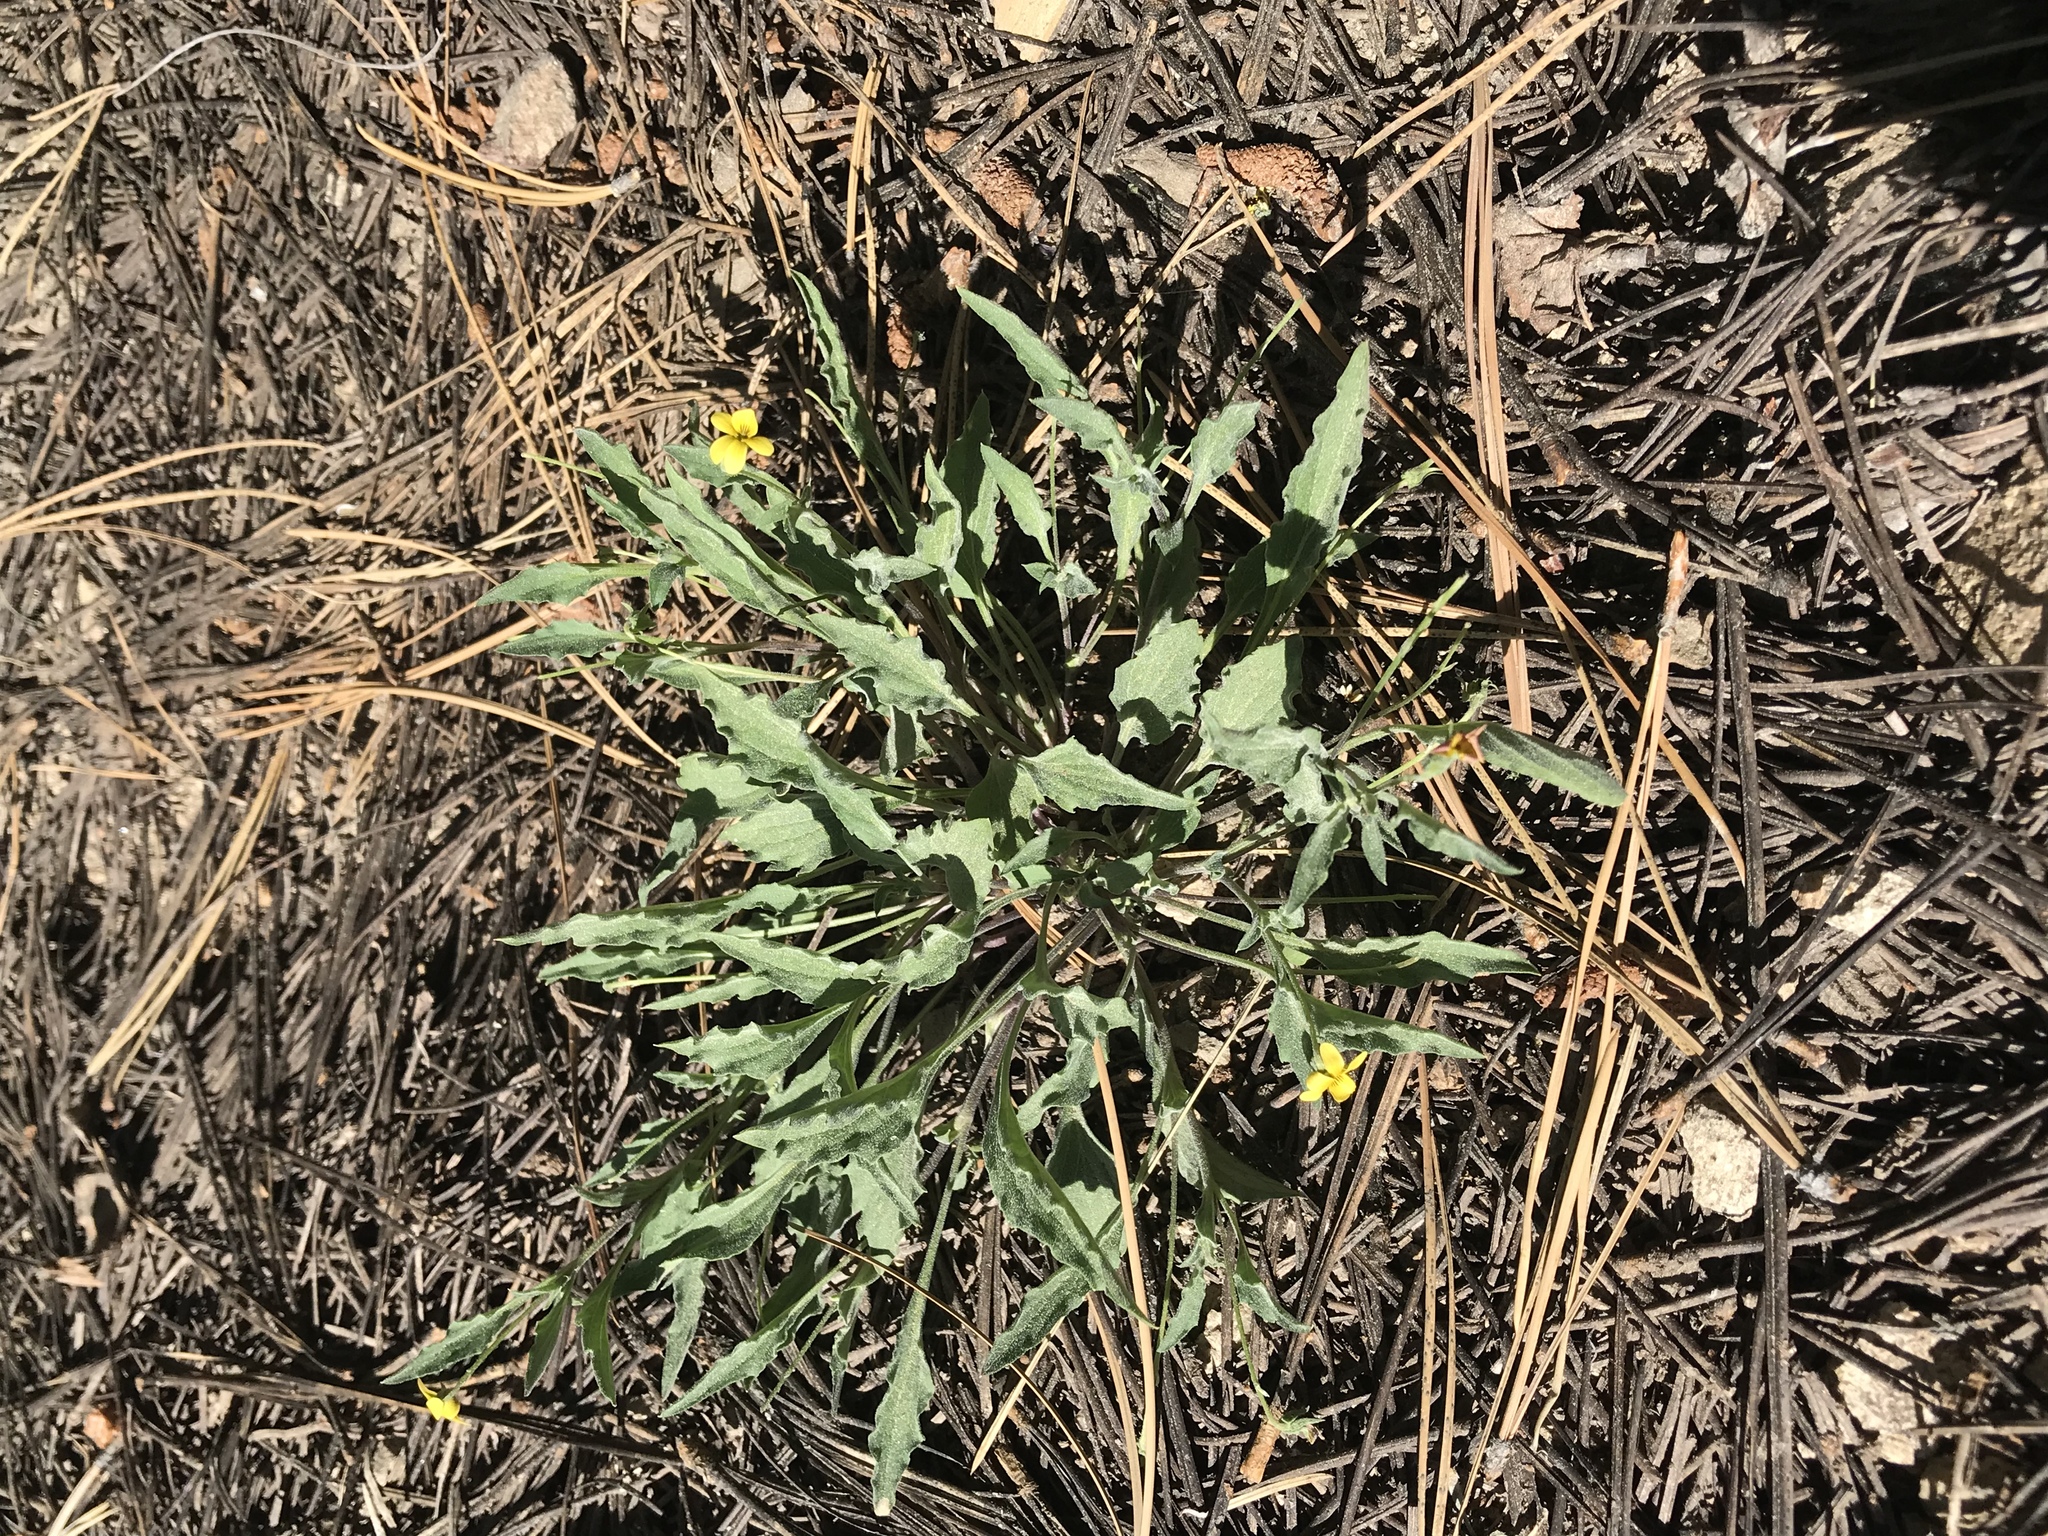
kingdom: Plantae
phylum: Tracheophyta
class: Magnoliopsida
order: Malpighiales
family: Violaceae
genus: Viola
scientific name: Viola pinetorum
